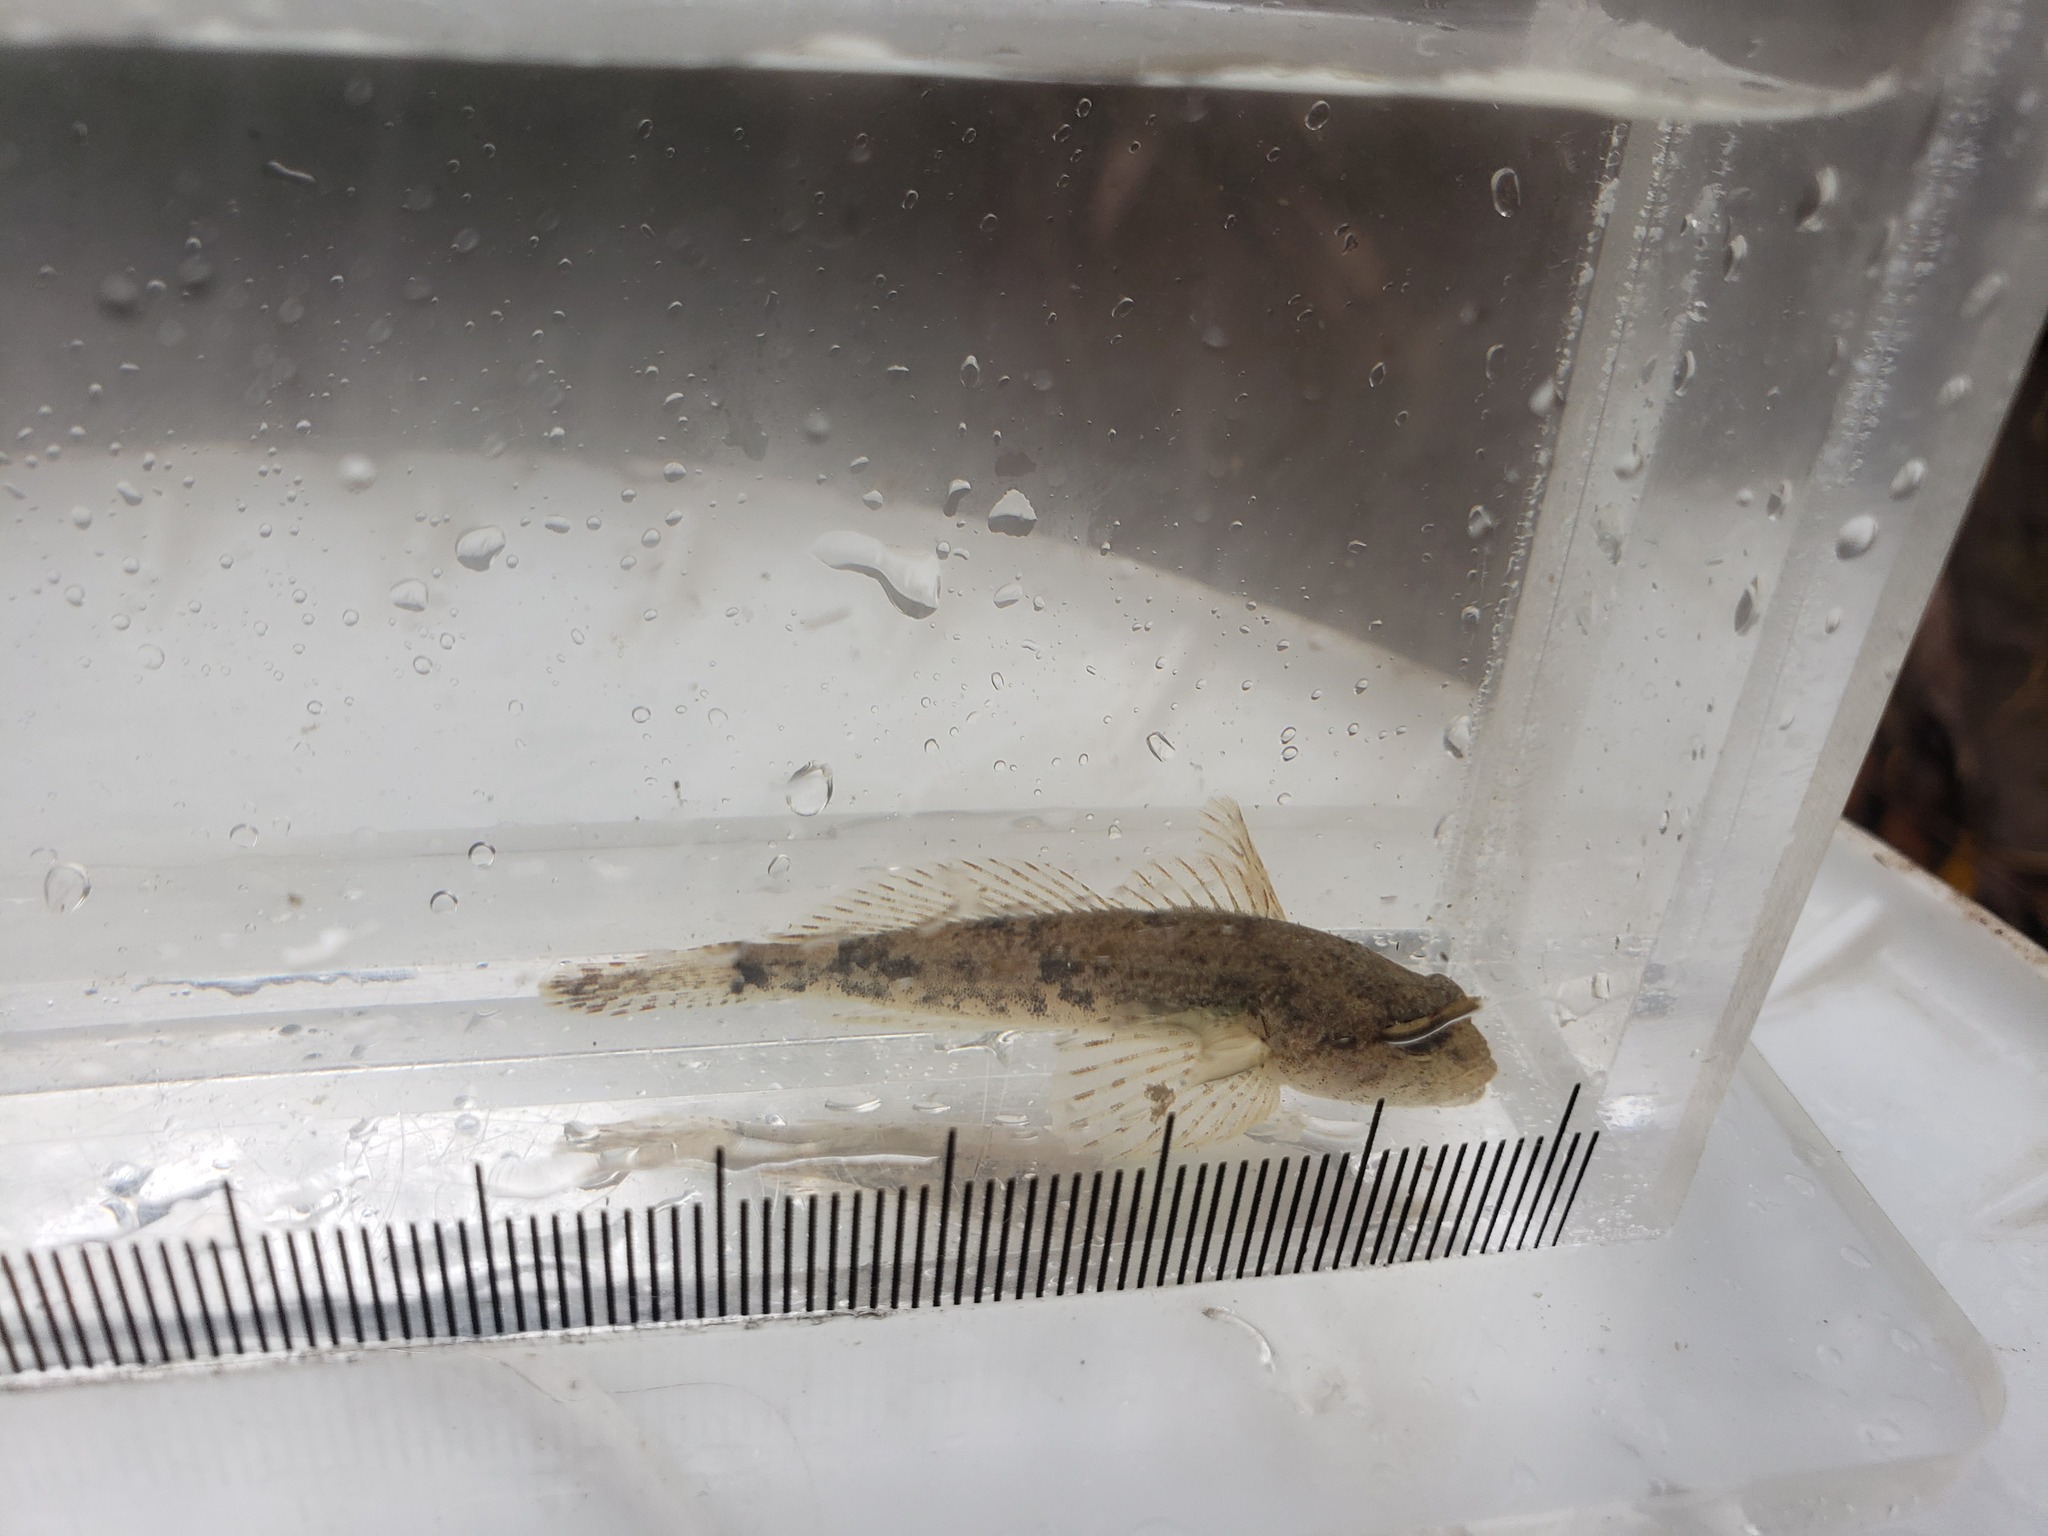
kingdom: Animalia
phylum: Chordata
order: Scorpaeniformes
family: Cottidae
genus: Cottus
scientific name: Cottus bairdii
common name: Mottled sculpin
